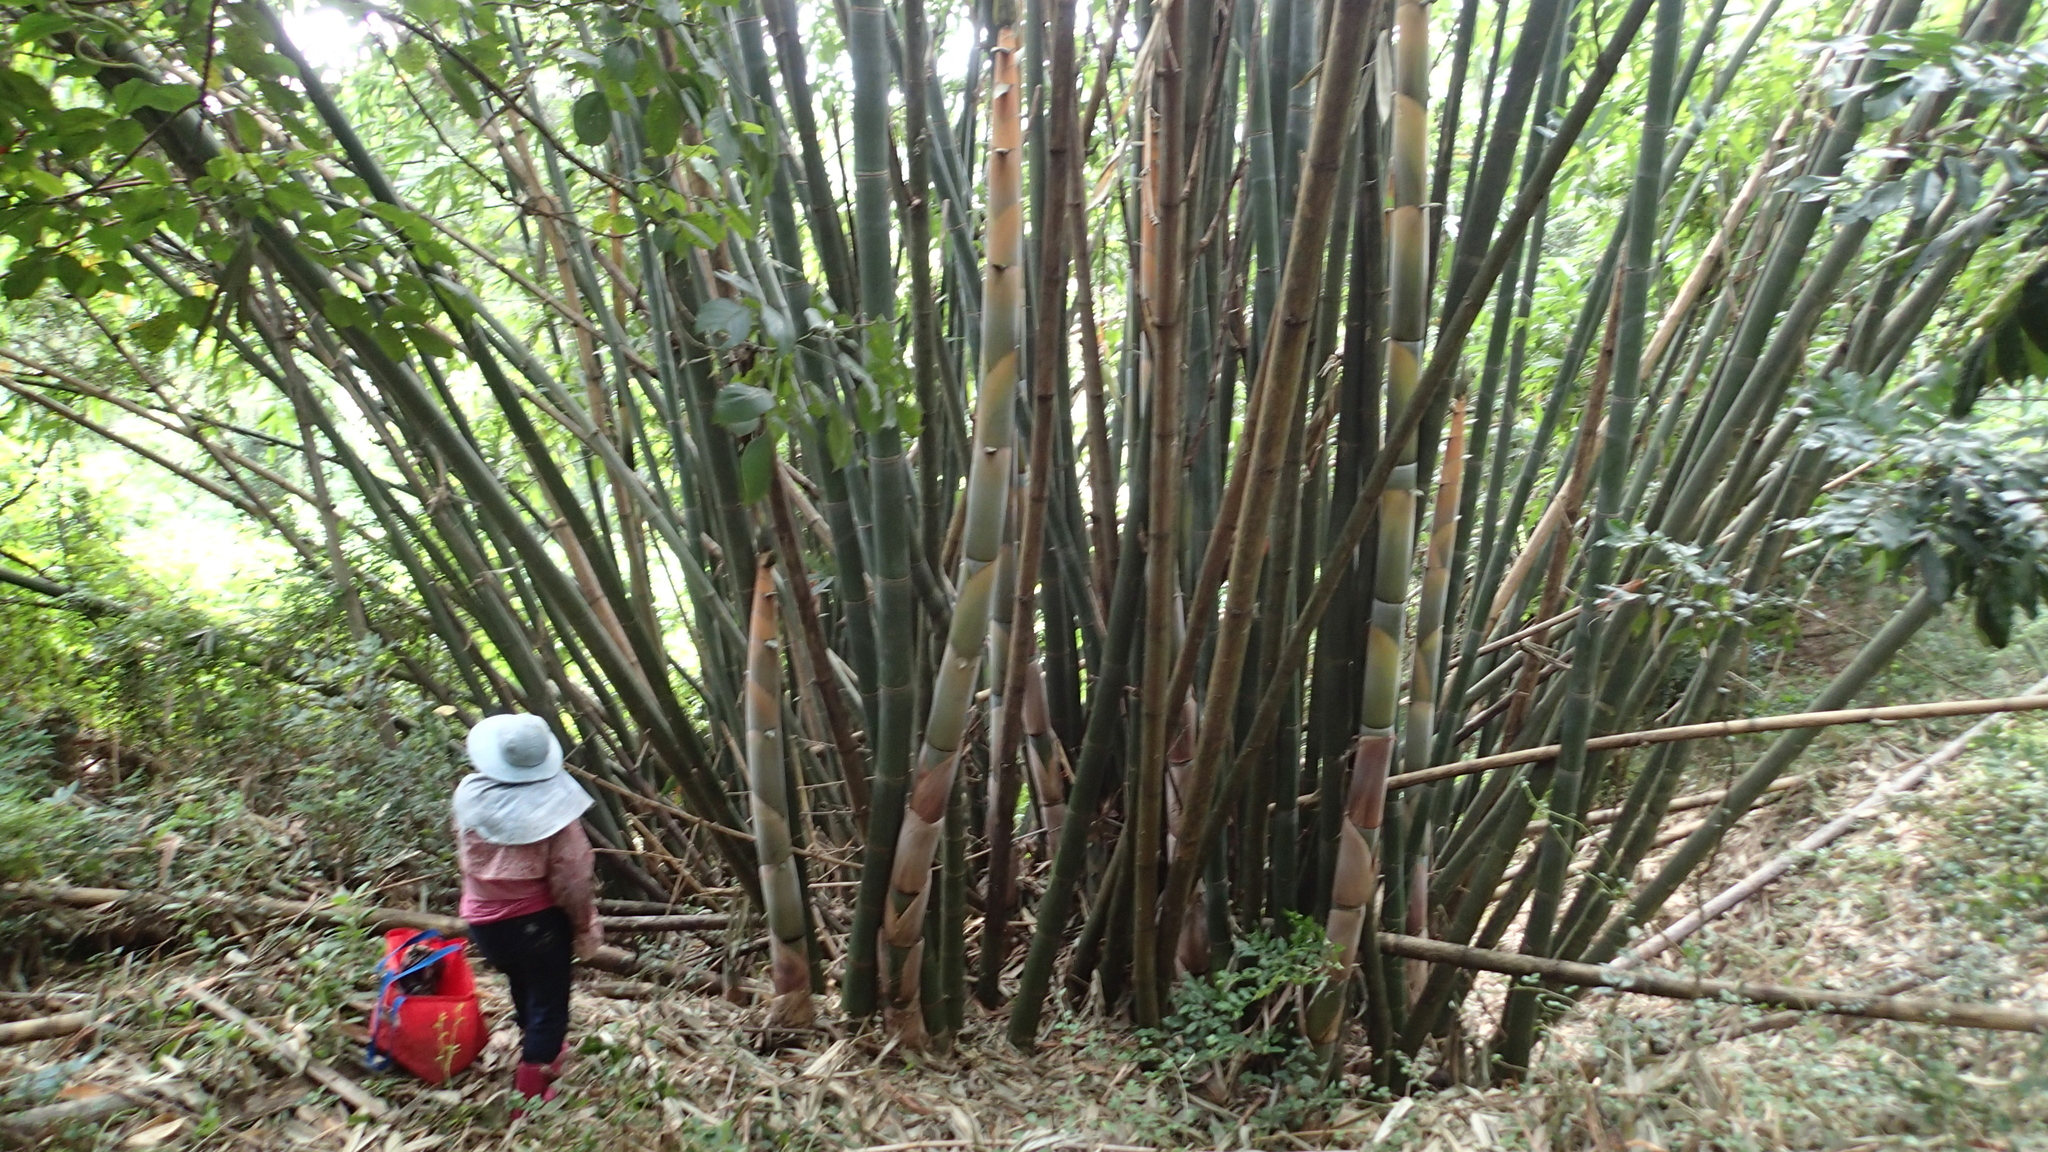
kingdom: Plantae
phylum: Tracheophyta
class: Liliopsida
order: Poales
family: Poaceae
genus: Dendrocalamus
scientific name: Dendrocalamus latiflorus
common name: Giant bamboo
